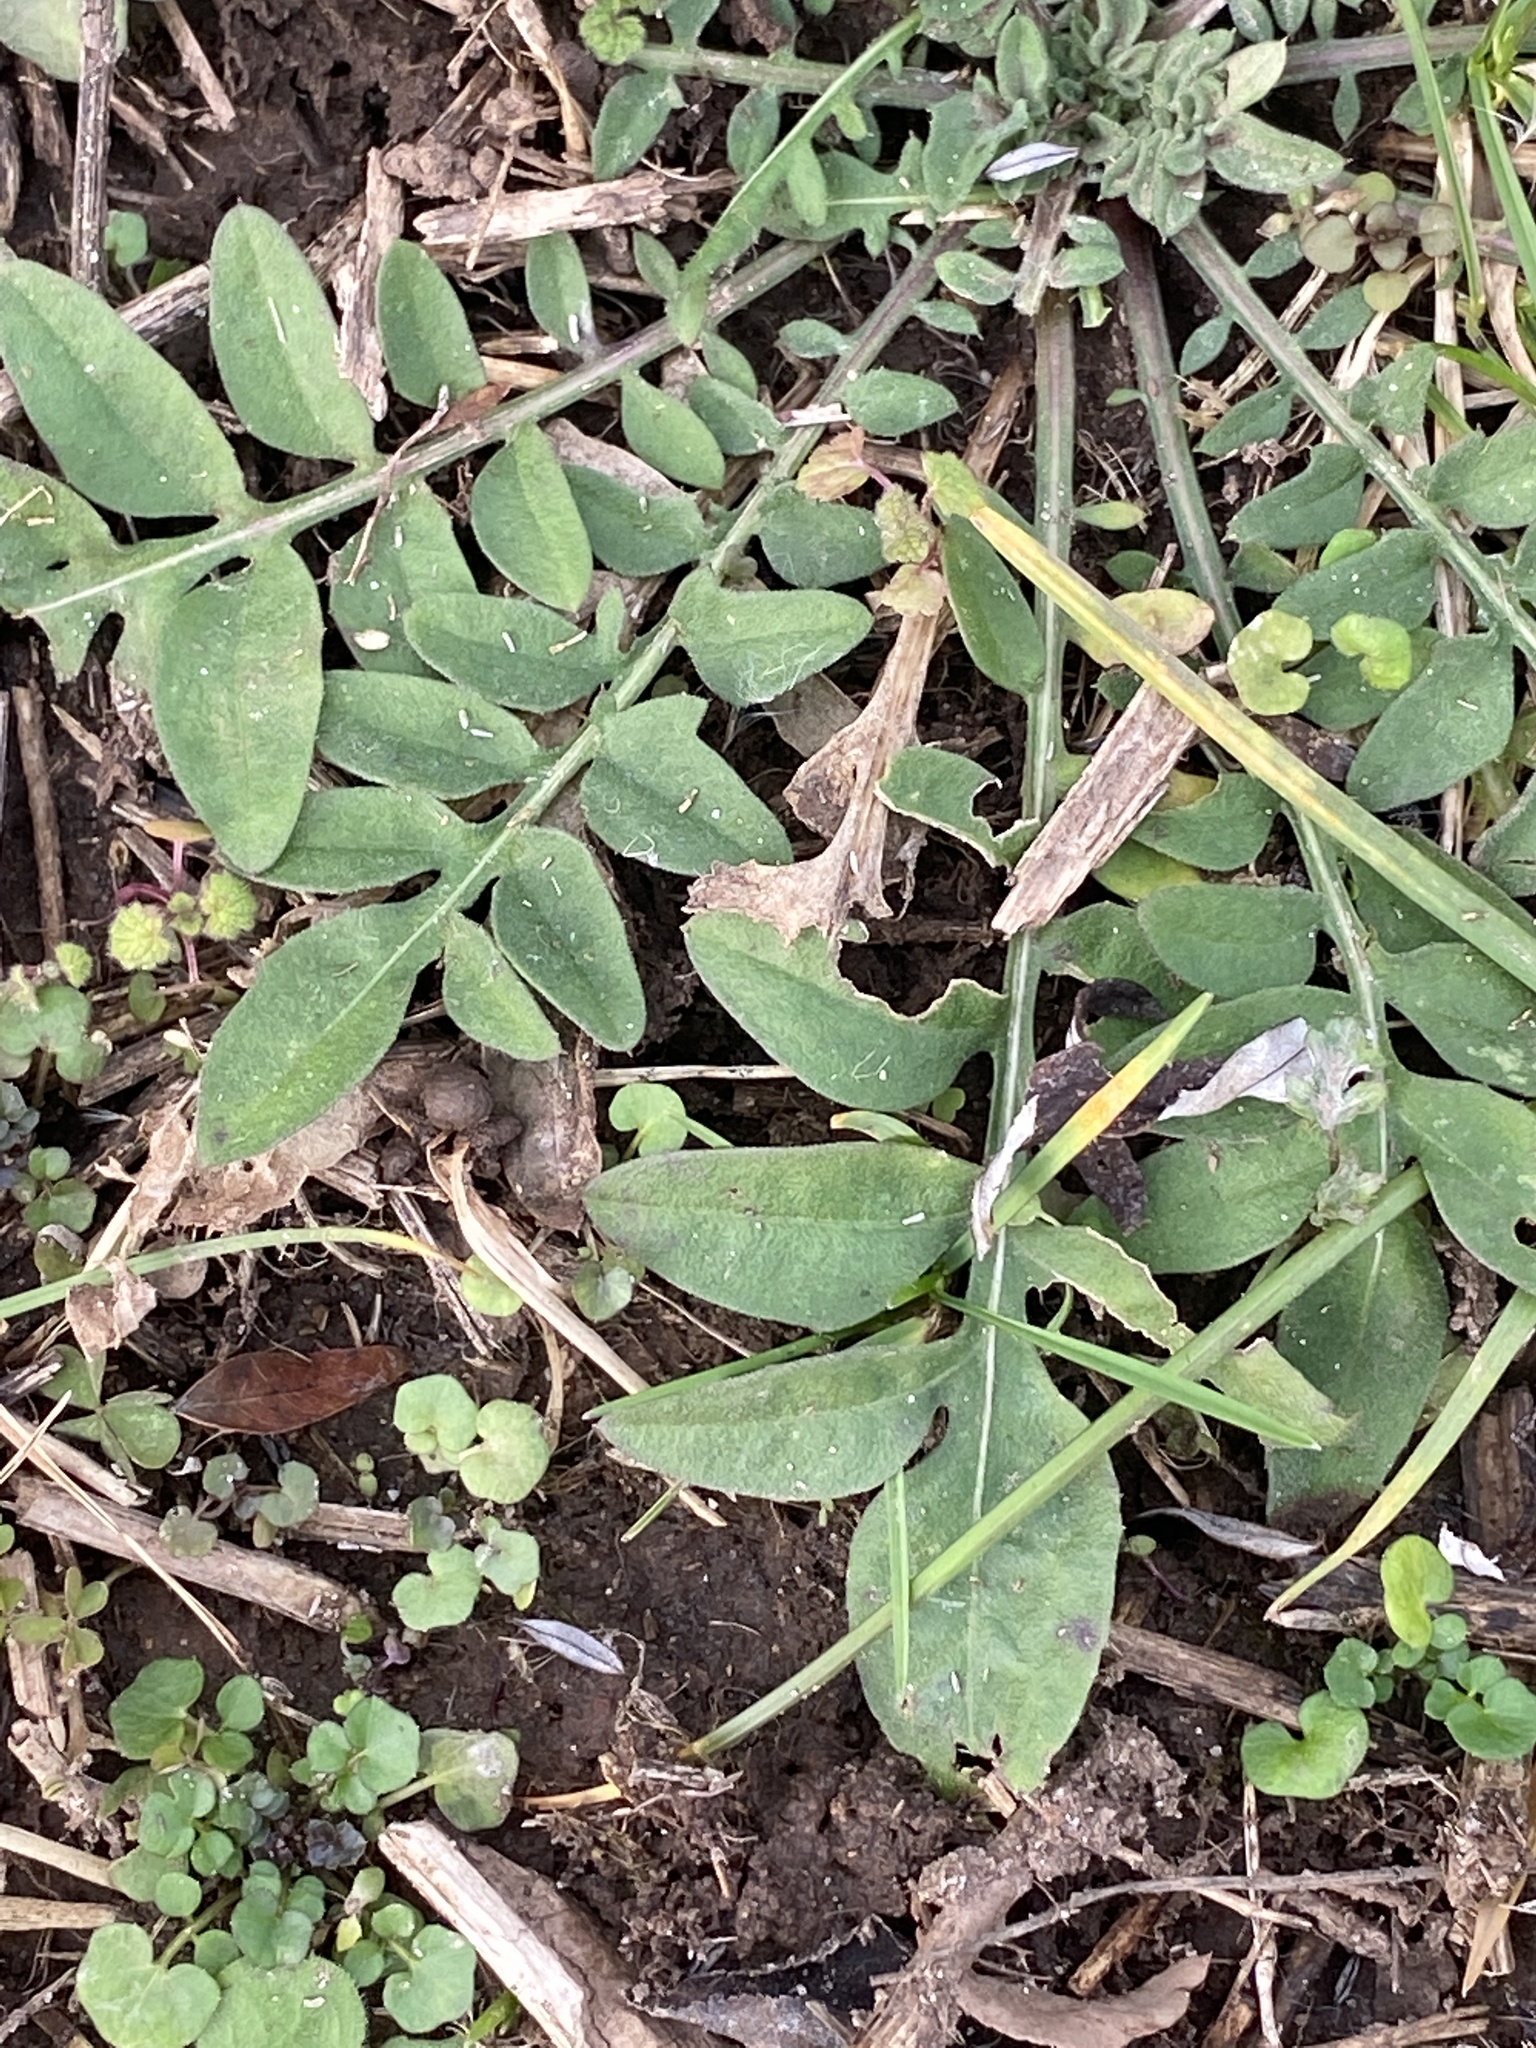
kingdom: Plantae
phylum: Tracheophyta
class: Magnoliopsida
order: Asterales
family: Asteraceae
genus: Centaurea
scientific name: Centaurea stoebe
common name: Spotted knapweed
